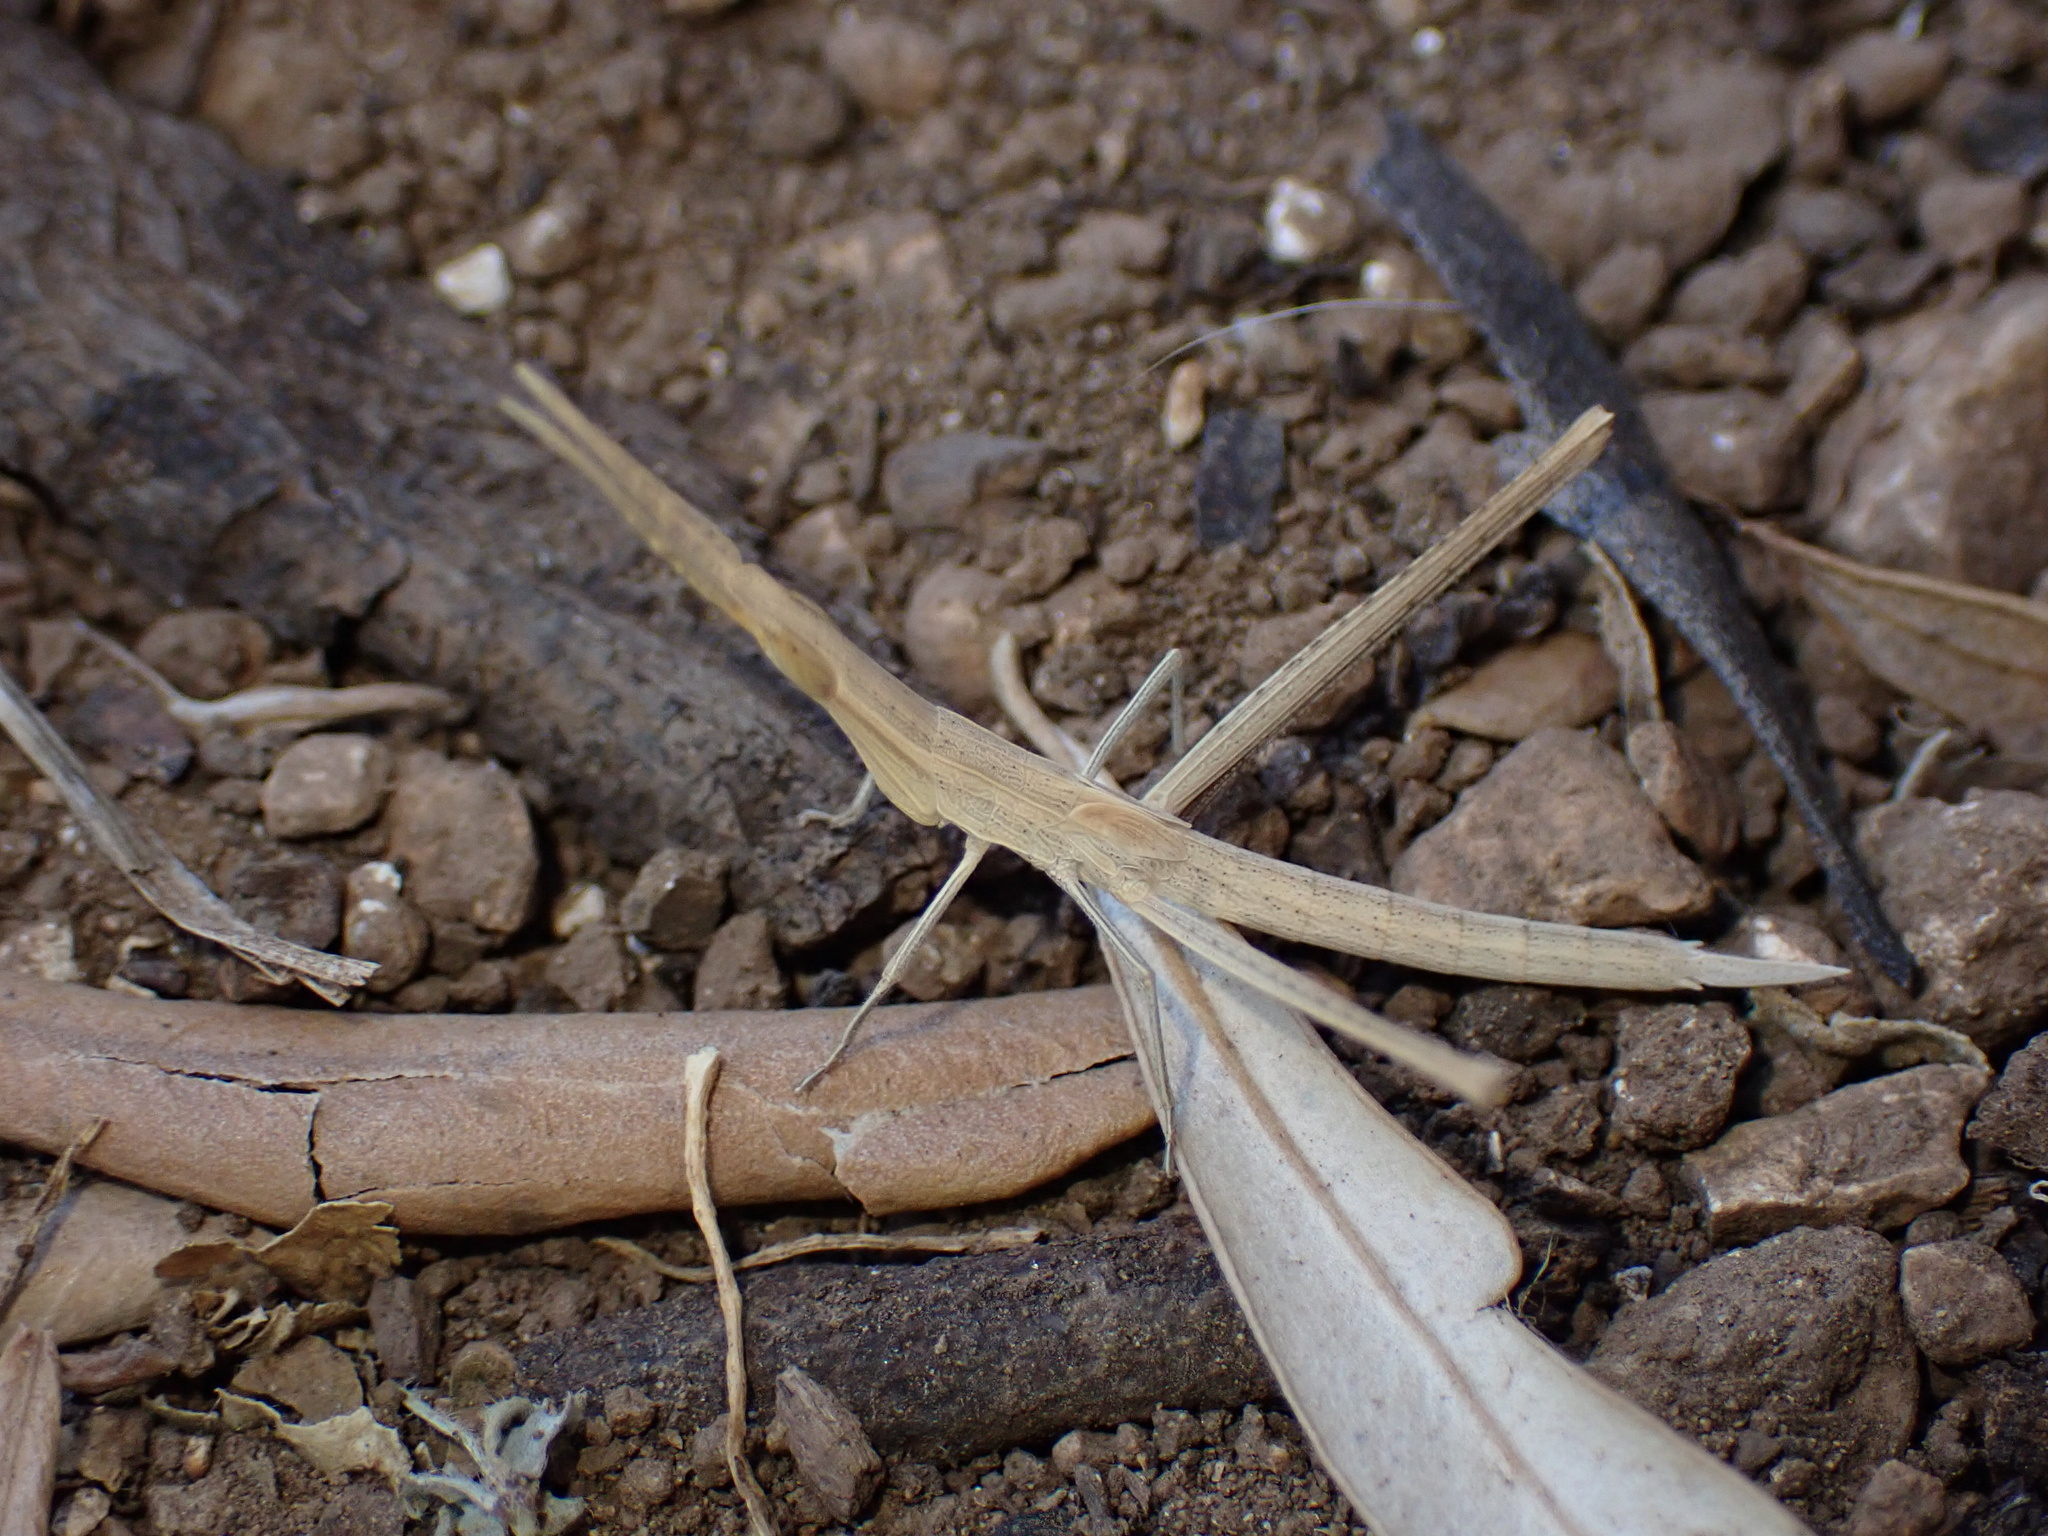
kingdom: Animalia
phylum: Arthropoda
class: Insecta
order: Orthoptera
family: Acrididae
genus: Acrida
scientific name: Acrida ungarica
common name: Common cone-headed grasshopper
